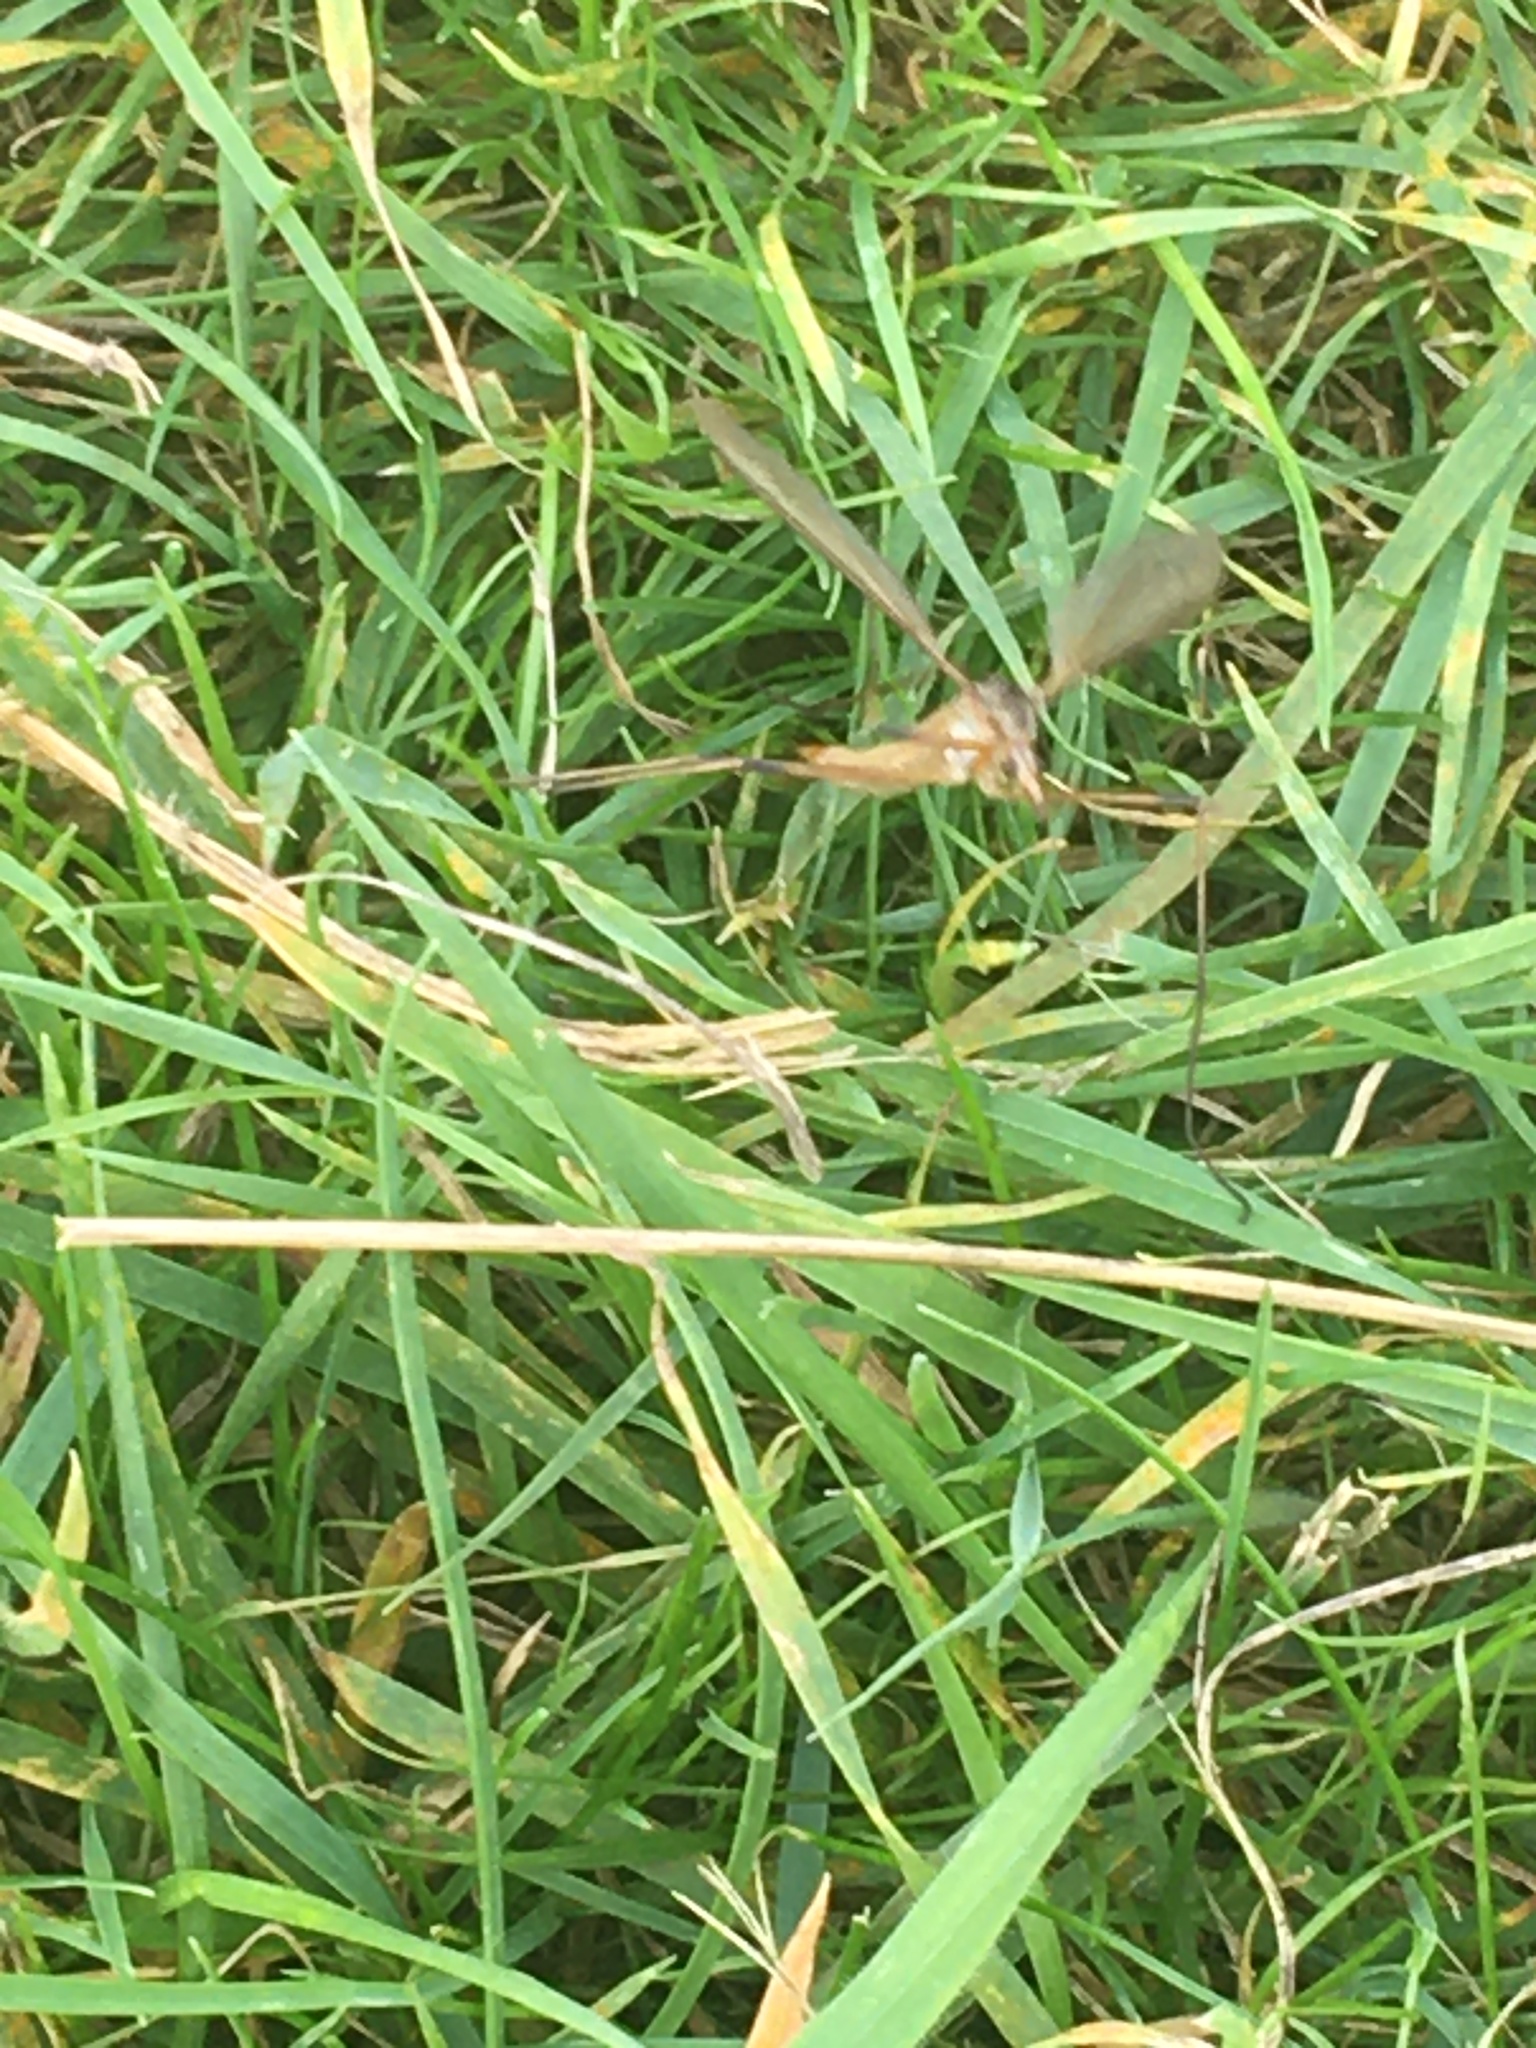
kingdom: Animalia
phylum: Arthropoda
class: Insecta
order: Diptera
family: Tipulidae
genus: Tipula
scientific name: Tipula paludosa
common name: European cranefly
